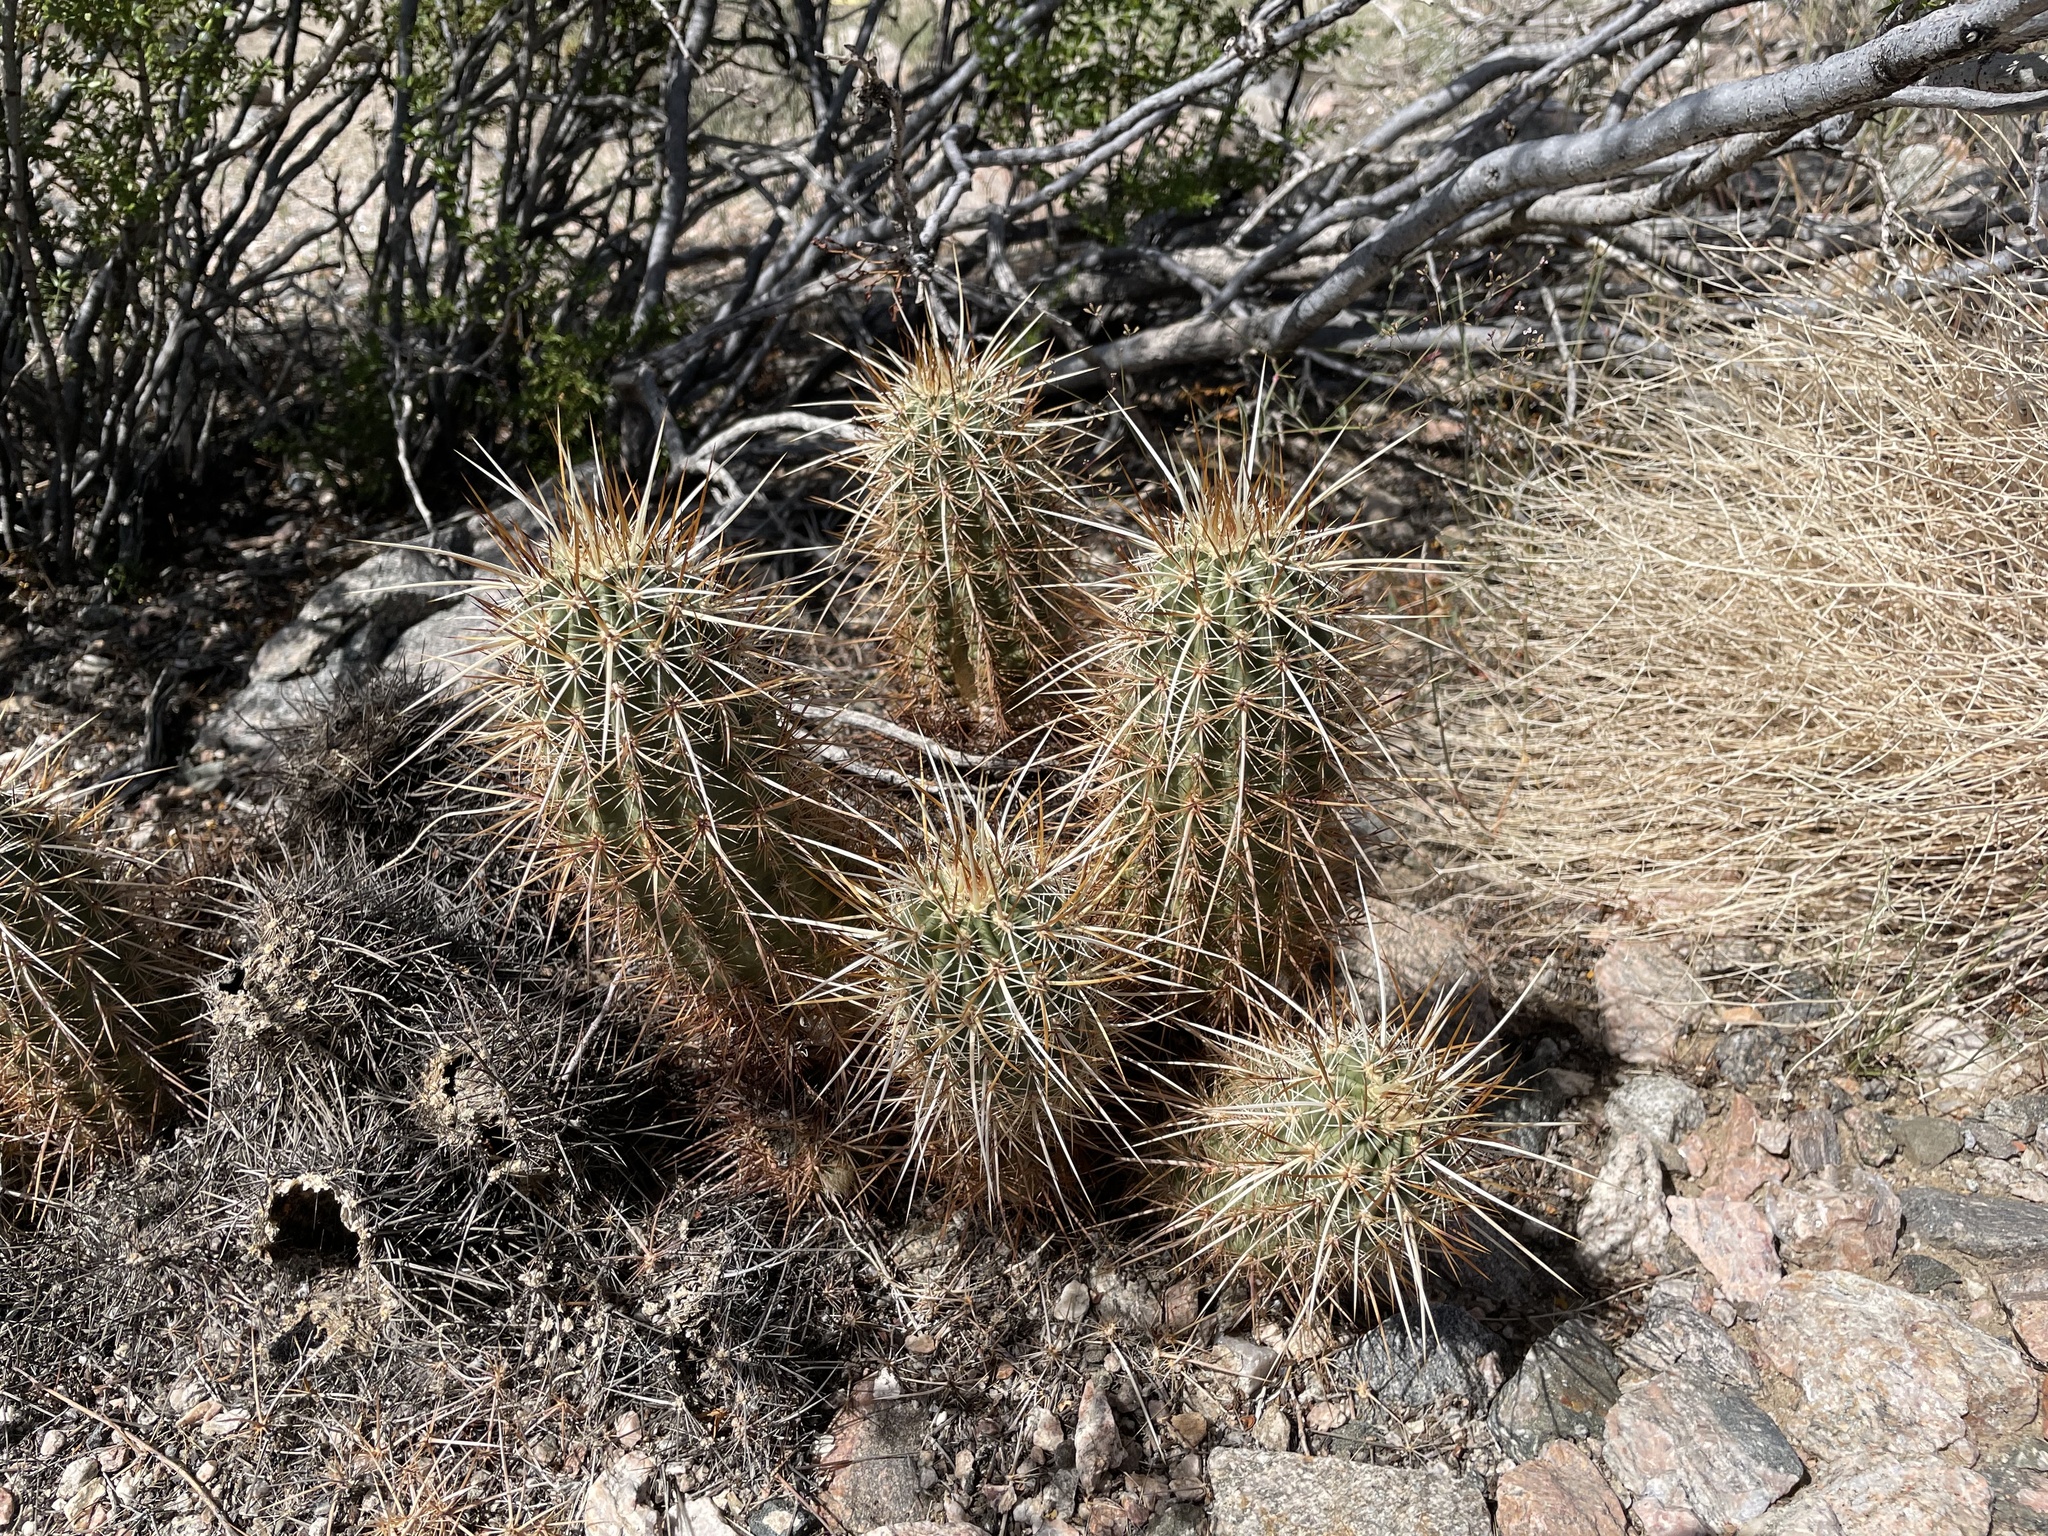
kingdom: Plantae
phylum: Tracheophyta
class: Magnoliopsida
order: Caryophyllales
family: Cactaceae
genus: Echinocereus
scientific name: Echinocereus engelmannii
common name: Engelmann's hedgehog cactus
